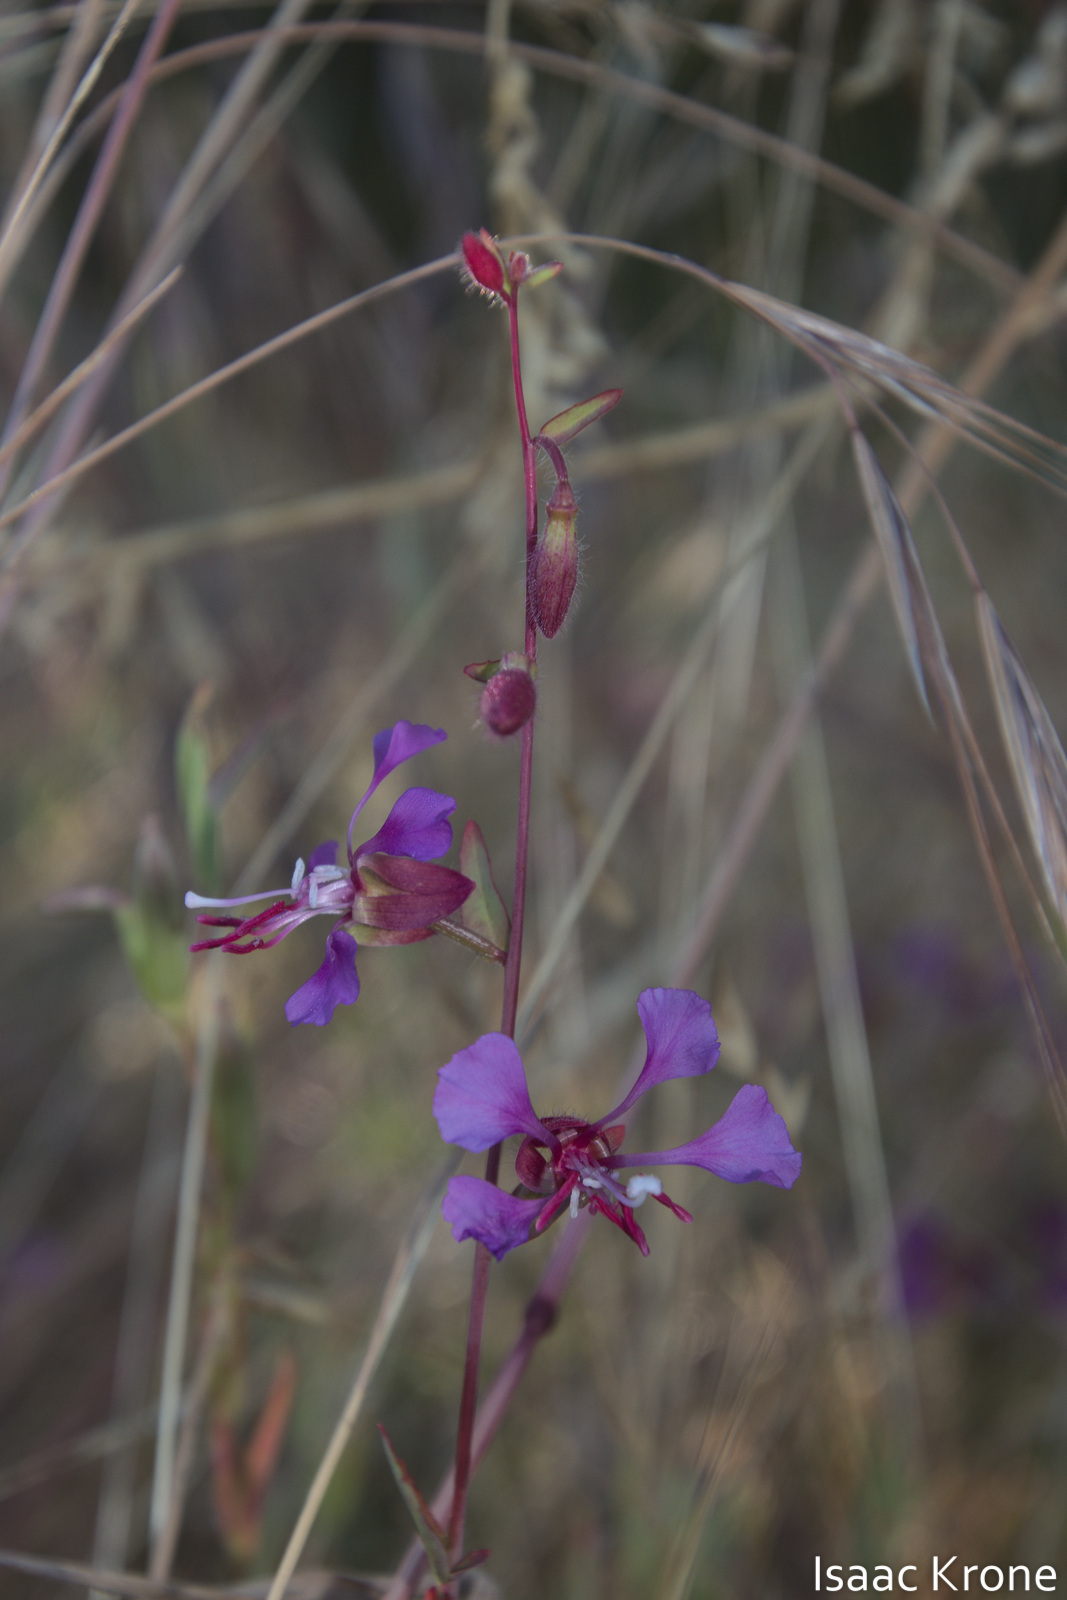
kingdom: Plantae
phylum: Tracheophyta
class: Magnoliopsida
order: Myrtales
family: Onagraceae
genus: Clarkia
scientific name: Clarkia unguiculata
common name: Clarkia
